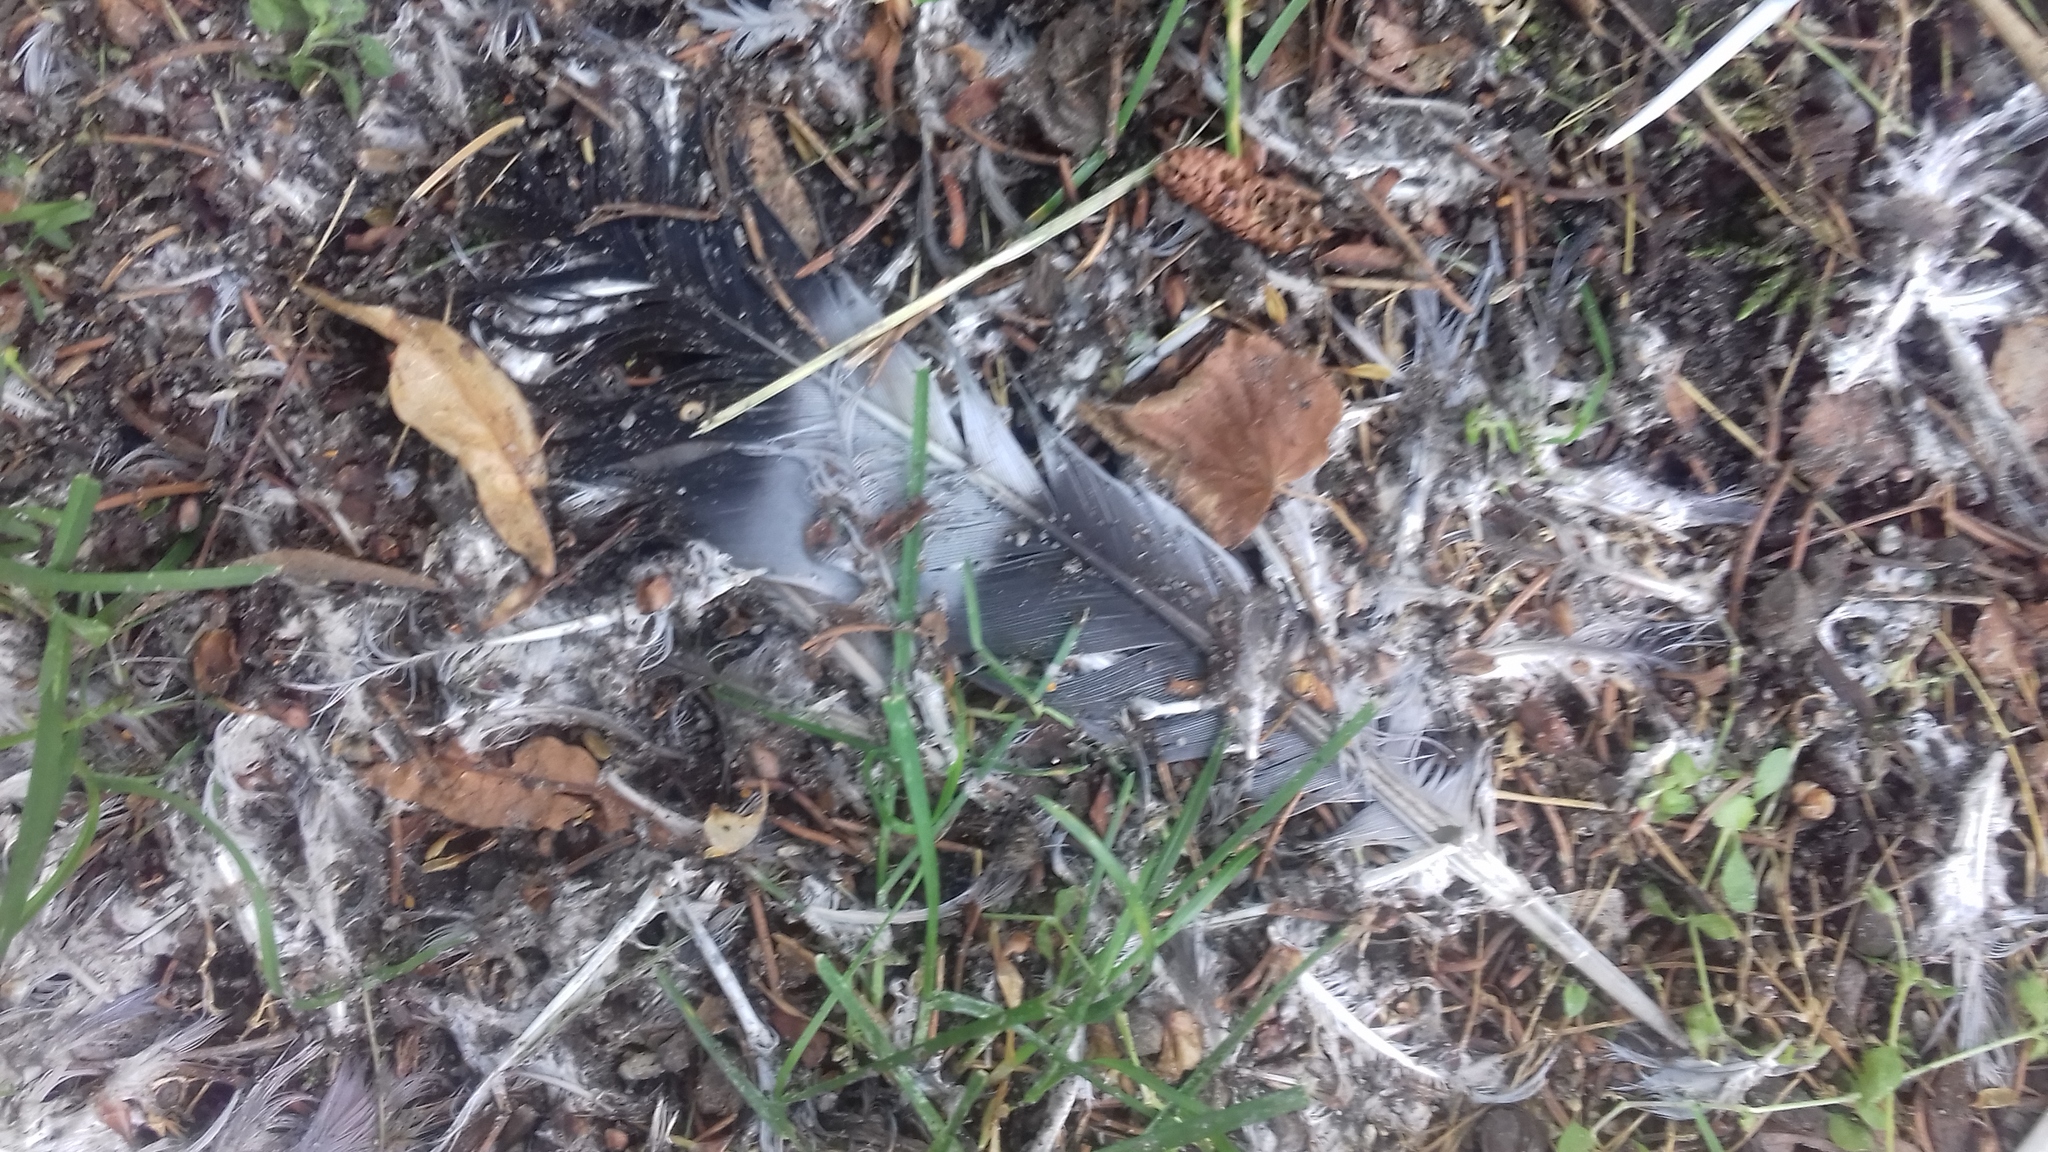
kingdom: Animalia
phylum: Chordata
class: Aves
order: Columbiformes
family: Columbidae
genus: Columba
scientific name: Columba palumbus
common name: Common wood pigeon
